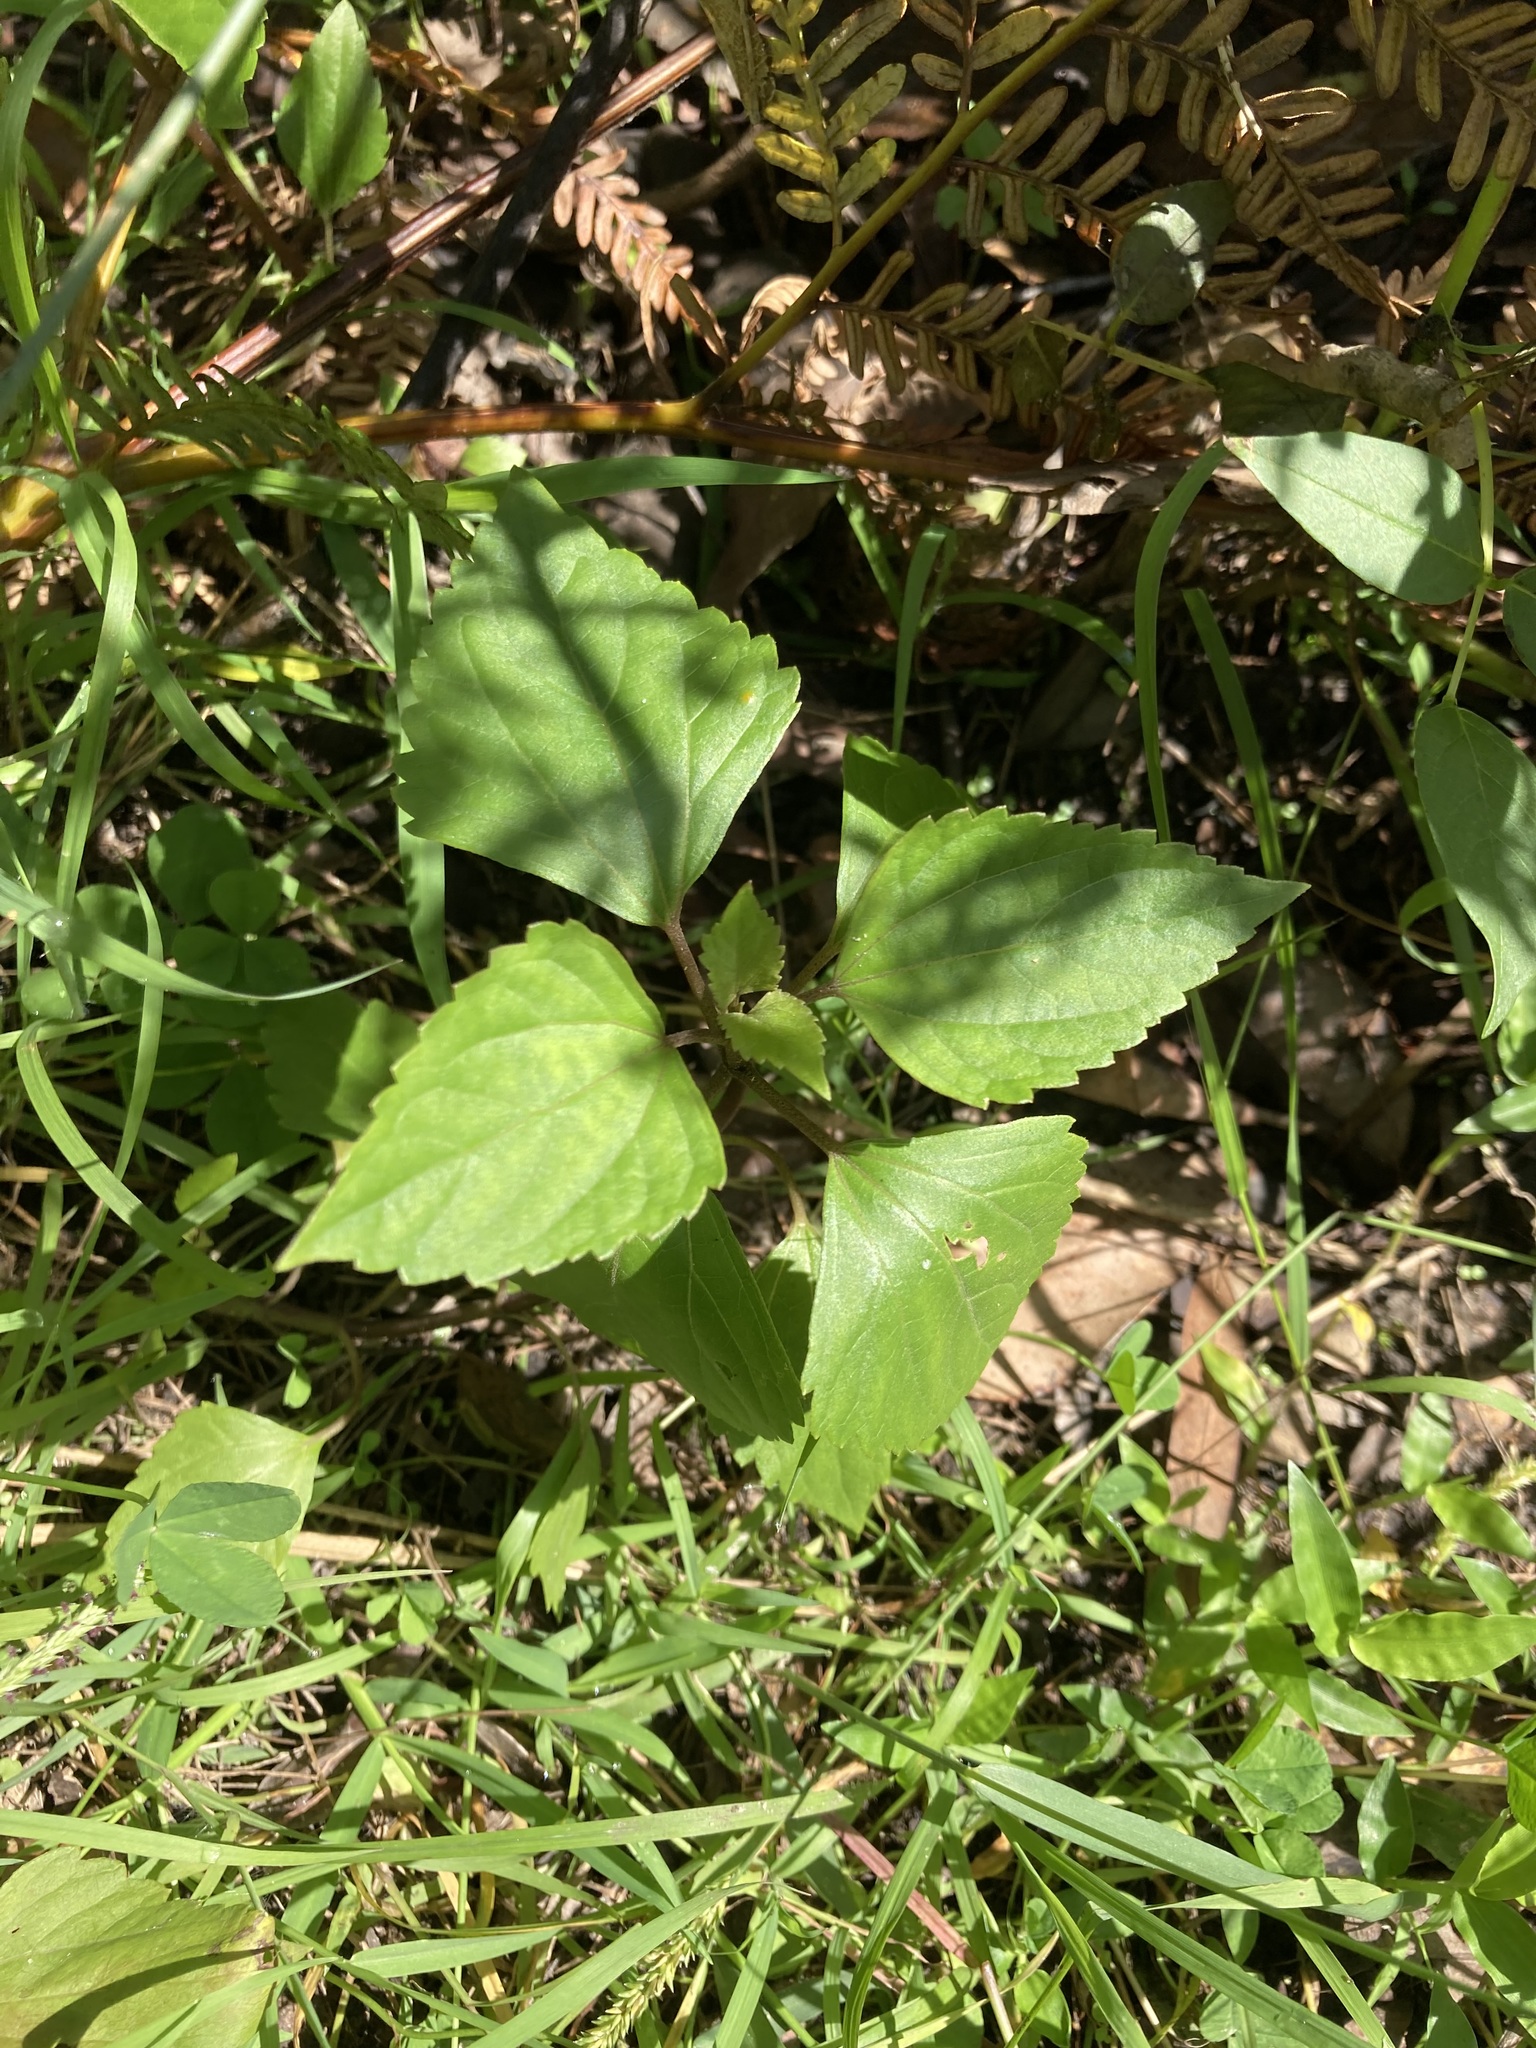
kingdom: Plantae
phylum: Tracheophyta
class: Magnoliopsida
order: Asterales
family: Asteraceae
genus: Ageratina
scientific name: Ageratina adenophora
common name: Sticky snakeroot
